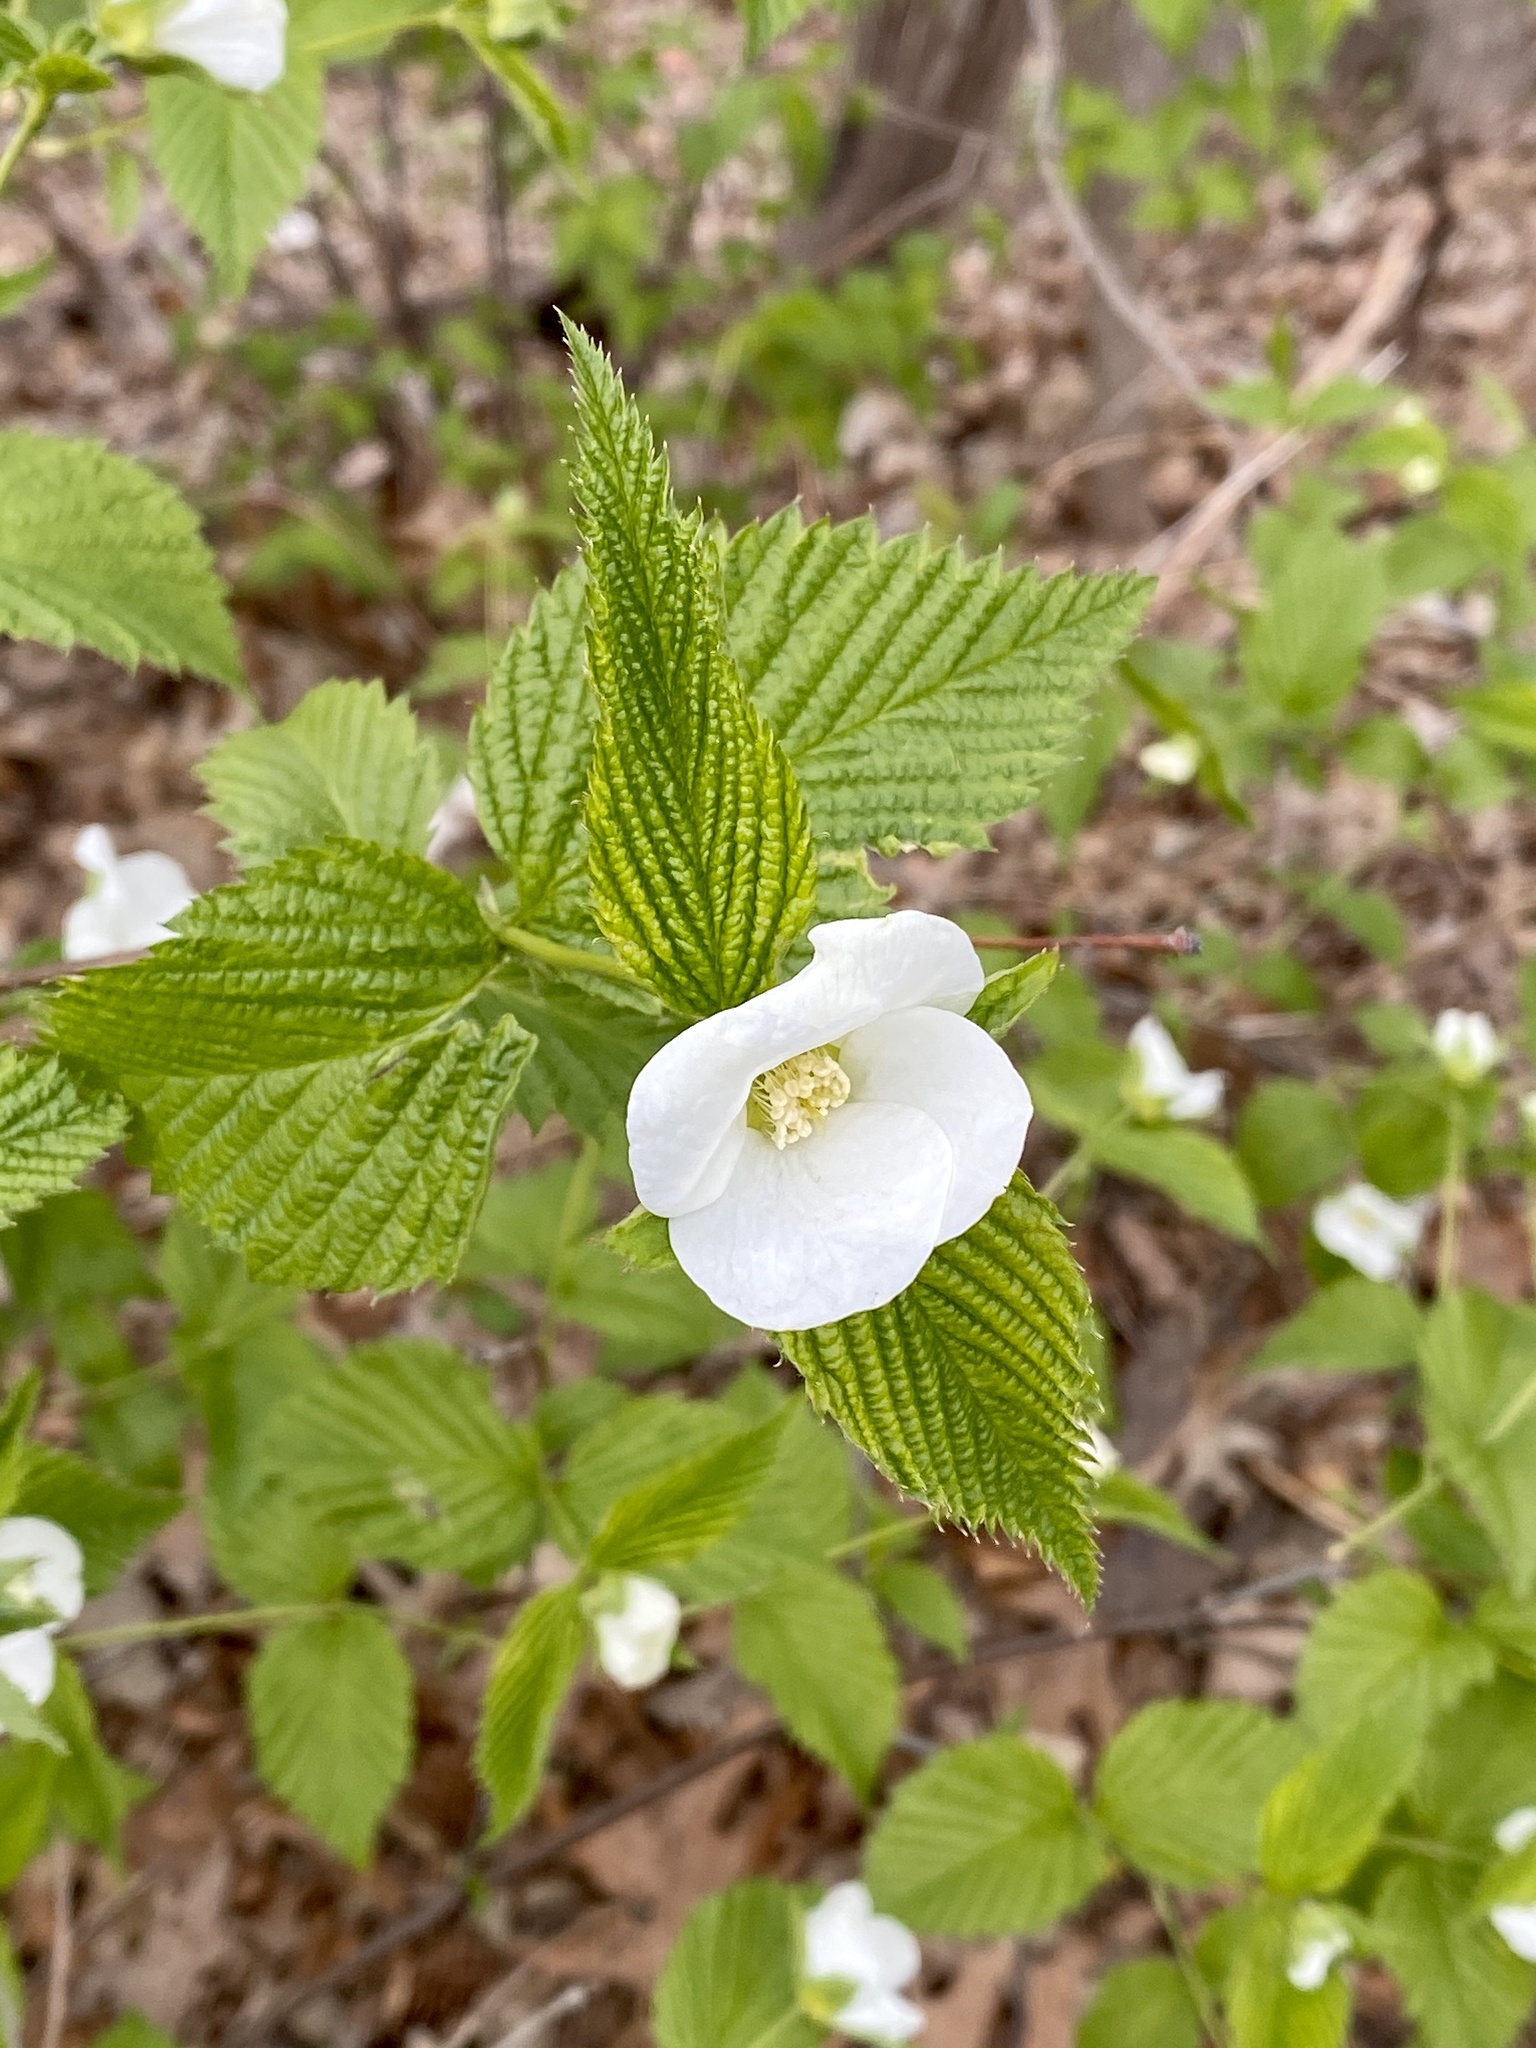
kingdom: Plantae
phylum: Tracheophyta
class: Magnoliopsida
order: Rosales
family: Rosaceae
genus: Rhodotypos
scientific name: Rhodotypos scandens
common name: Jetbead
